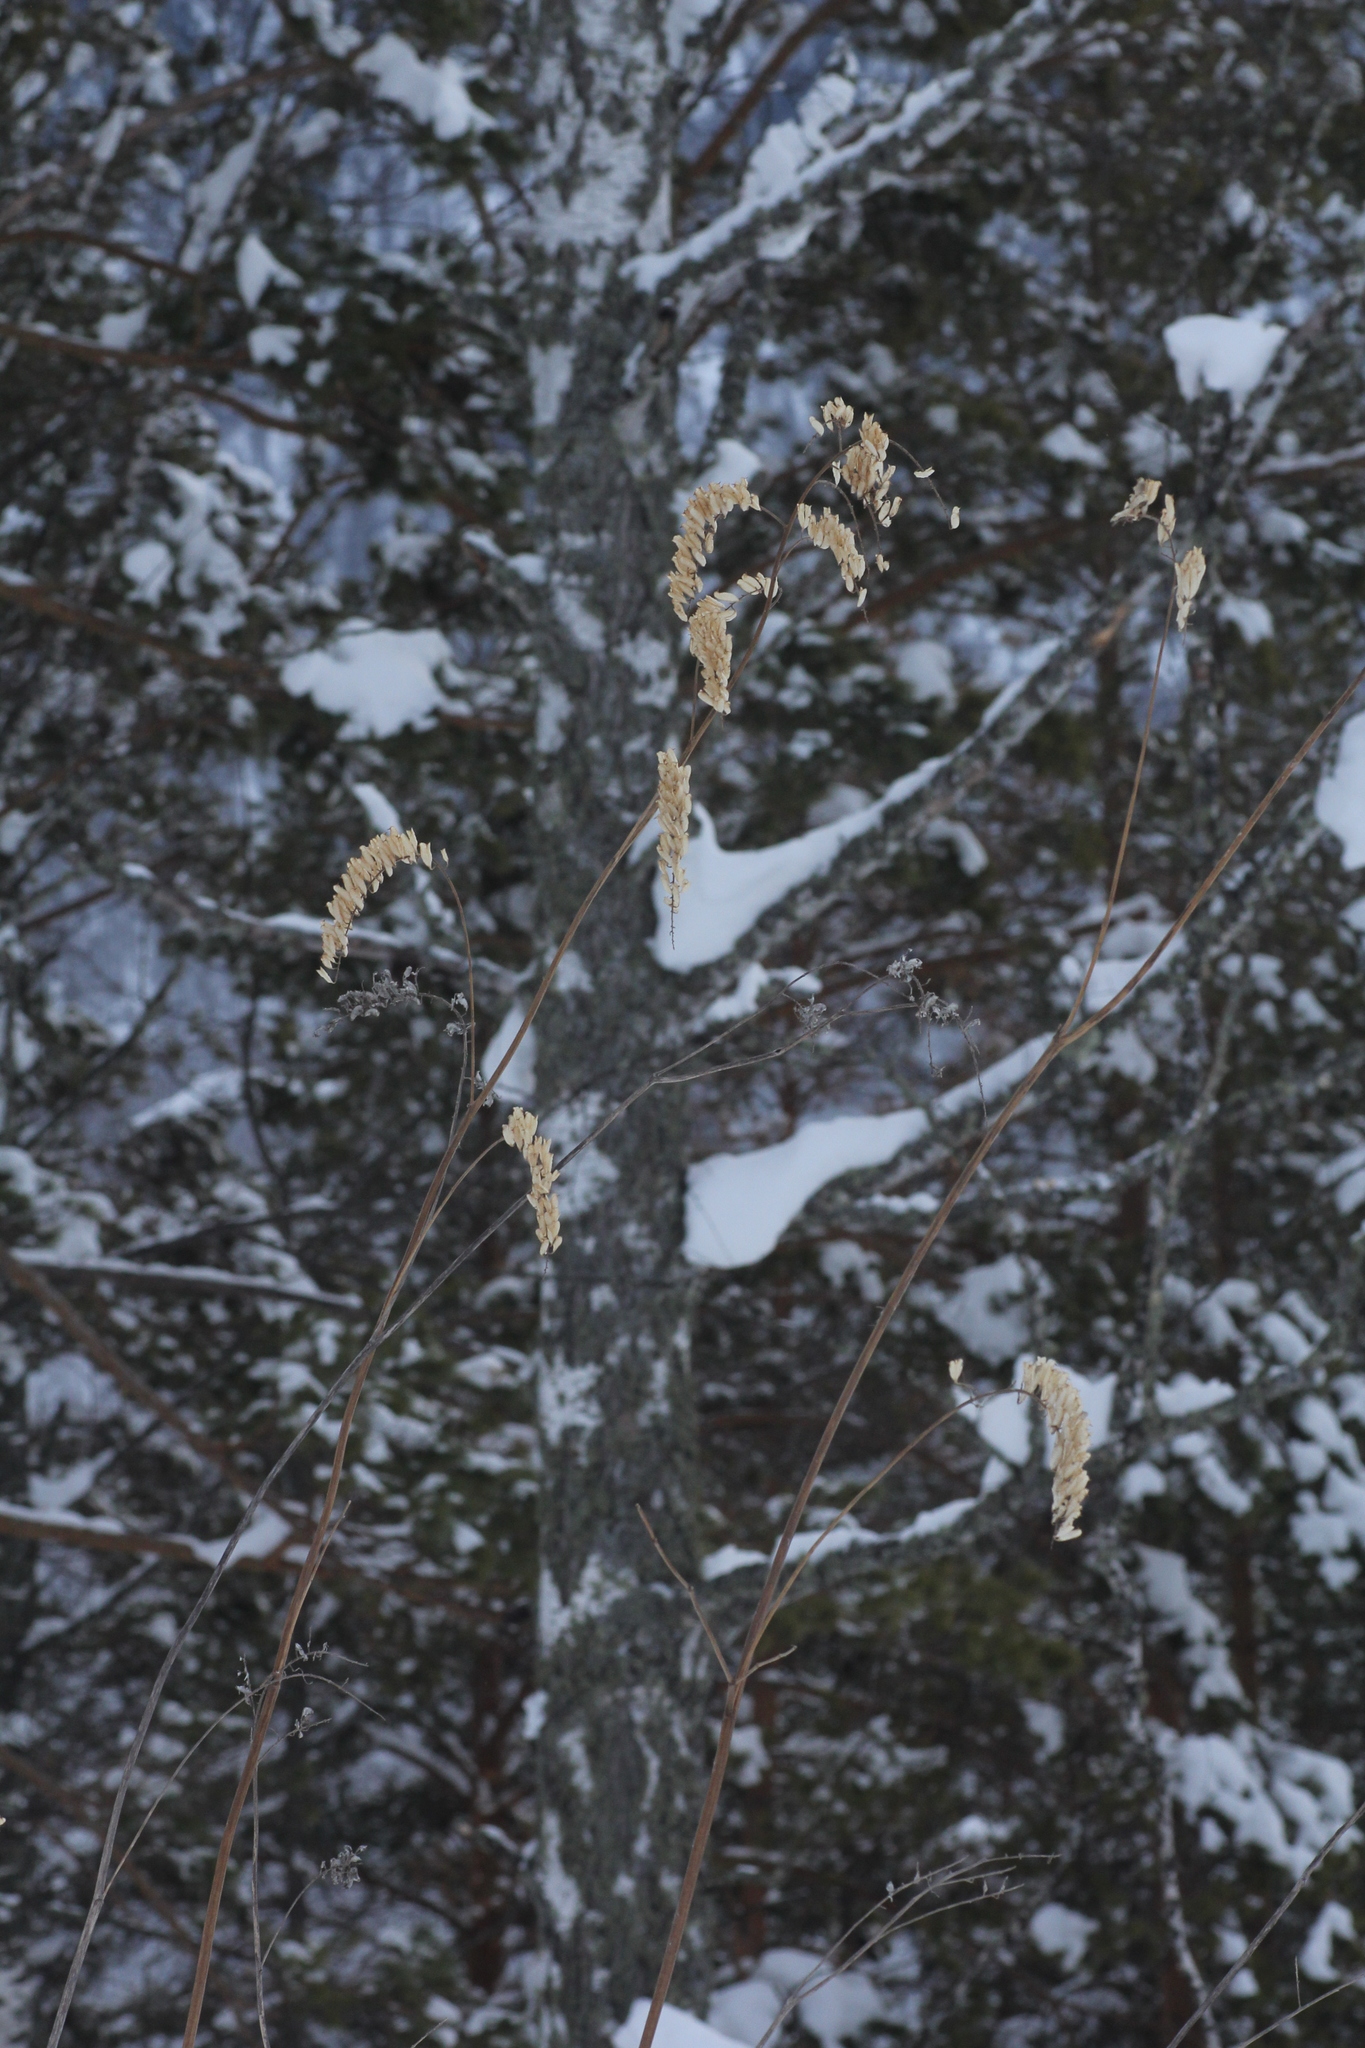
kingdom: Plantae
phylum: Tracheophyta
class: Magnoliopsida
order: Ranunculales
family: Ranunculaceae
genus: Actaea
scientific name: Actaea cimicifuga
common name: Chinese cimicifuga
